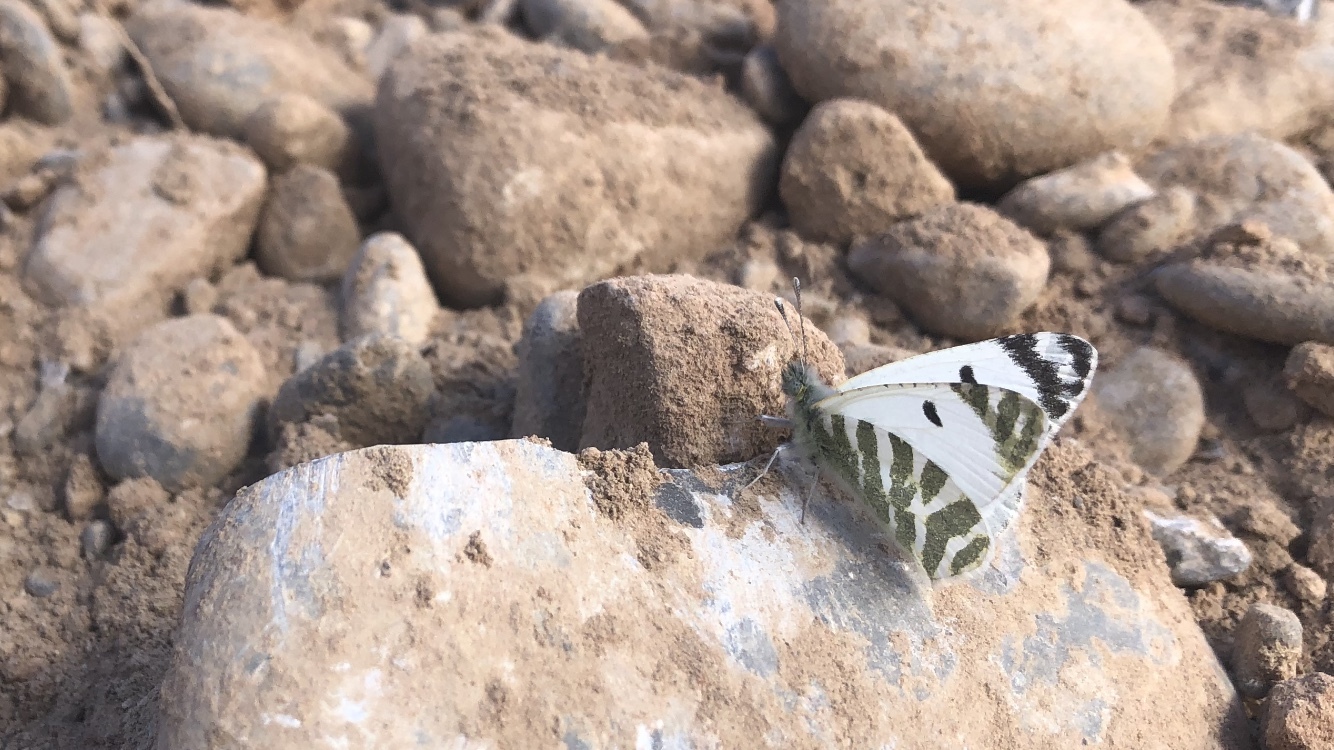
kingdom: Animalia
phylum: Arthropoda
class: Insecta
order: Lepidoptera
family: Pieridae
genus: Euchloe
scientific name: Euchloe falloui
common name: Scarce green-striped white
